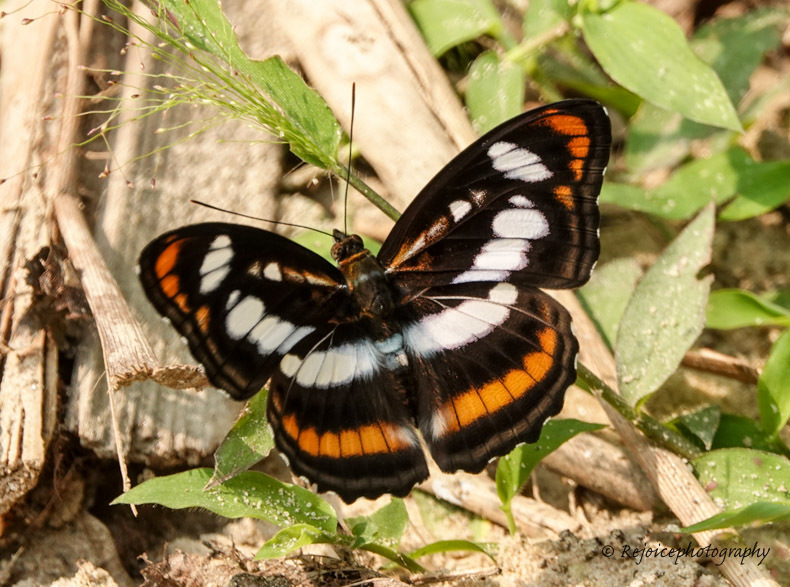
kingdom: Animalia
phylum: Arthropoda
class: Insecta
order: Lepidoptera
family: Nymphalidae
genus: Parathyma
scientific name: Parathyma nefte
